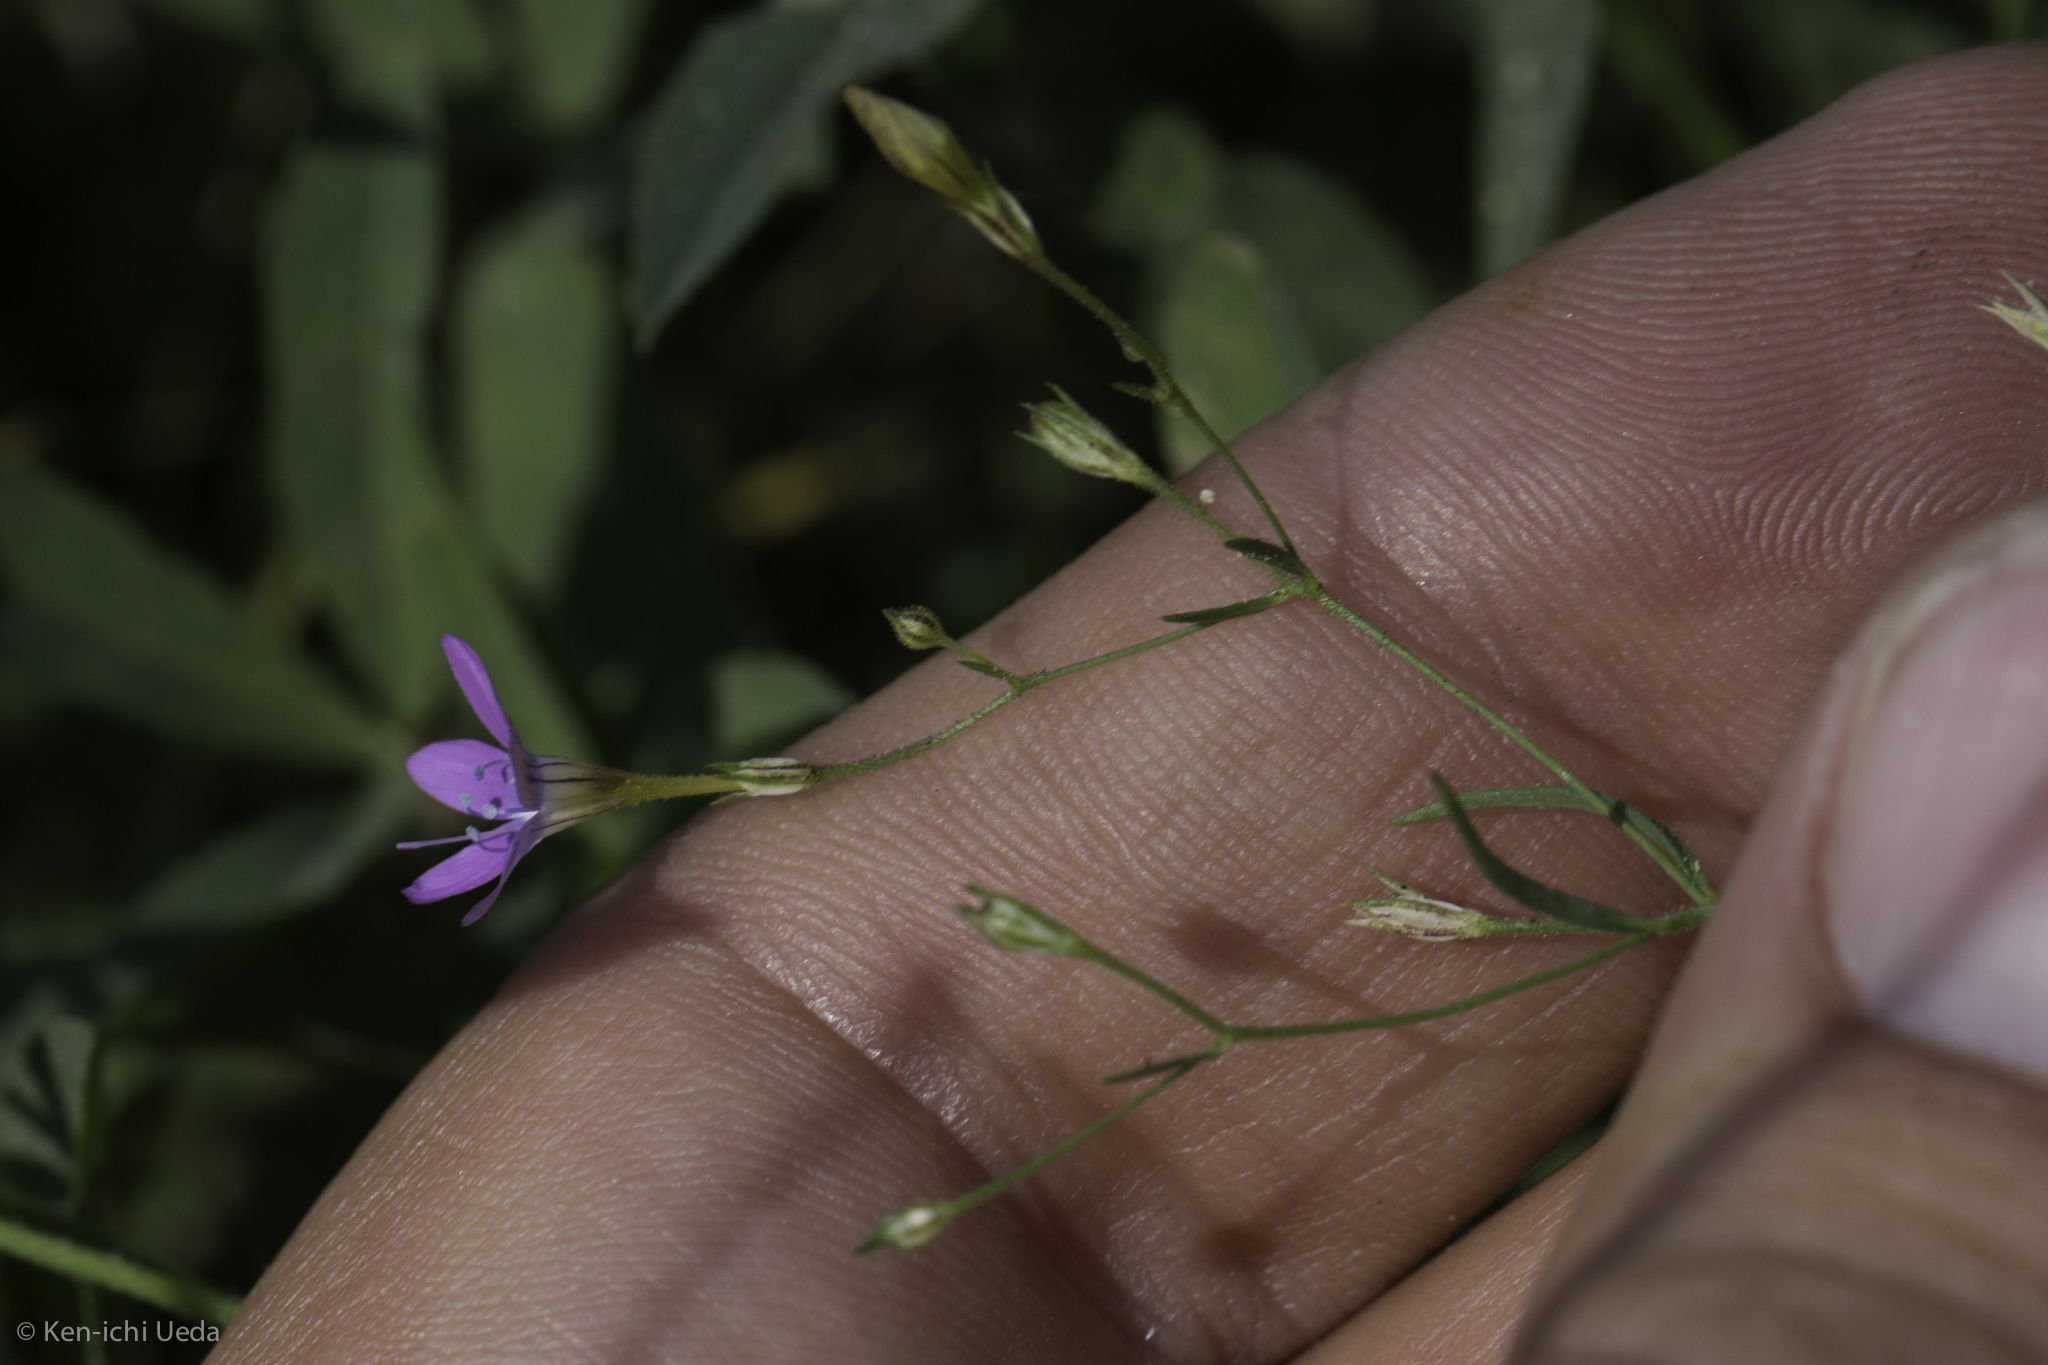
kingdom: Plantae
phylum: Tracheophyta
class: Magnoliopsida
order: Ericales
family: Polemoniaceae
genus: Navarretia
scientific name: Navarretia leptalea
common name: Bridges' pincushionplant
